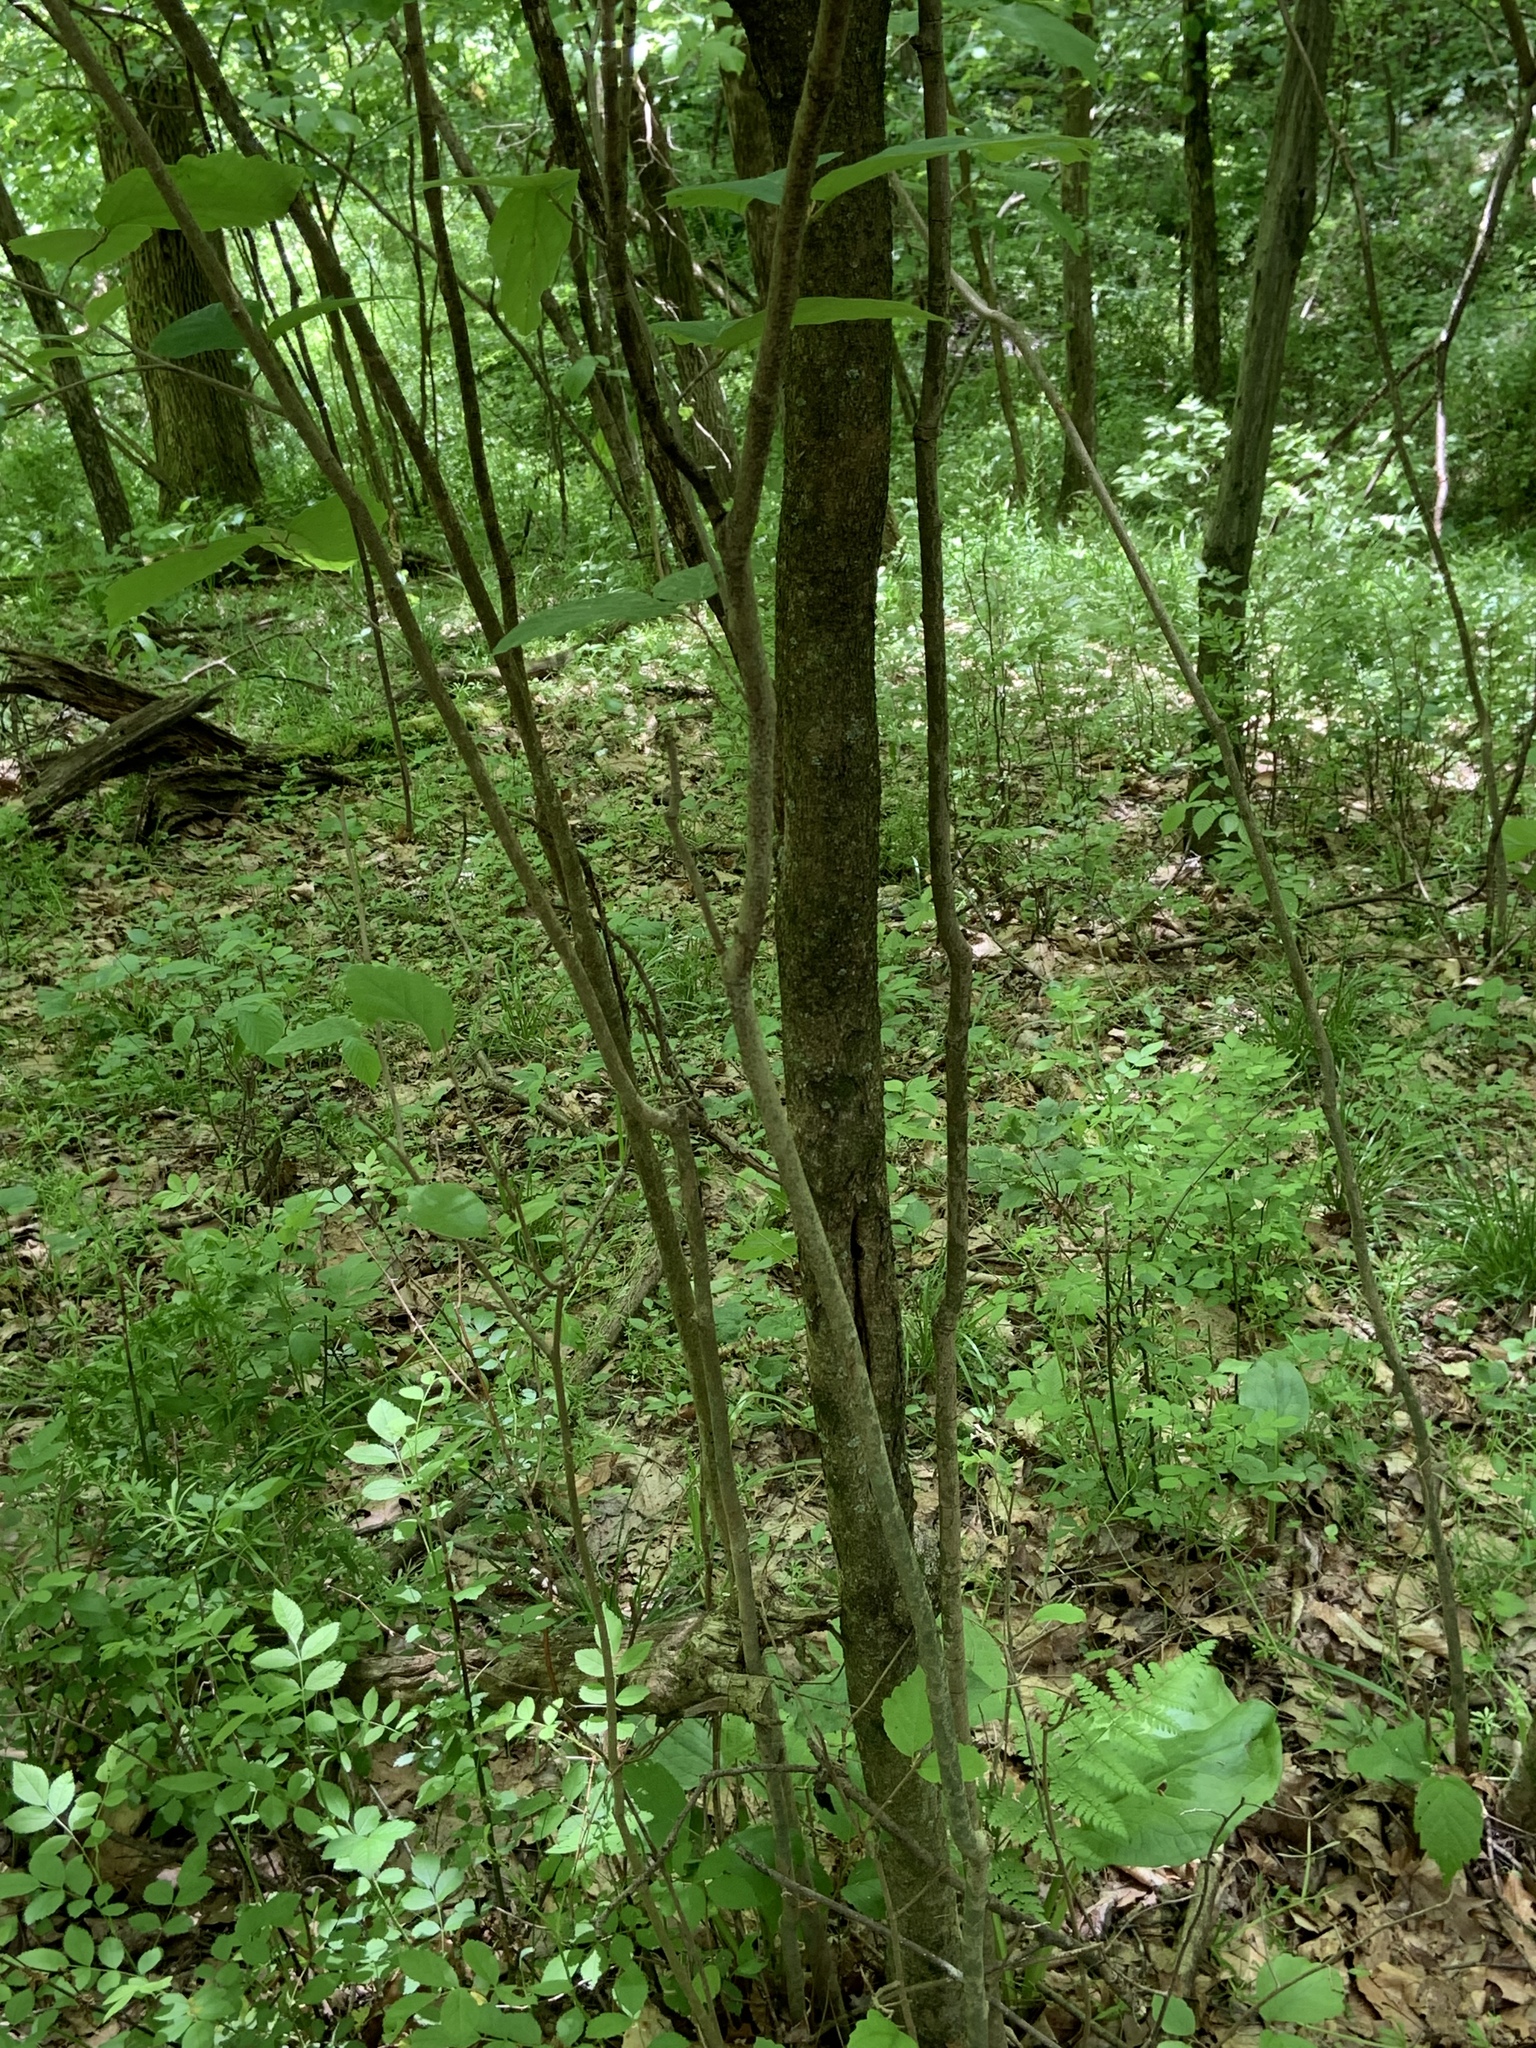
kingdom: Plantae
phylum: Tracheophyta
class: Magnoliopsida
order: Saxifragales
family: Hamamelidaceae
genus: Hamamelis
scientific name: Hamamelis virginiana
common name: Witch-hazel
